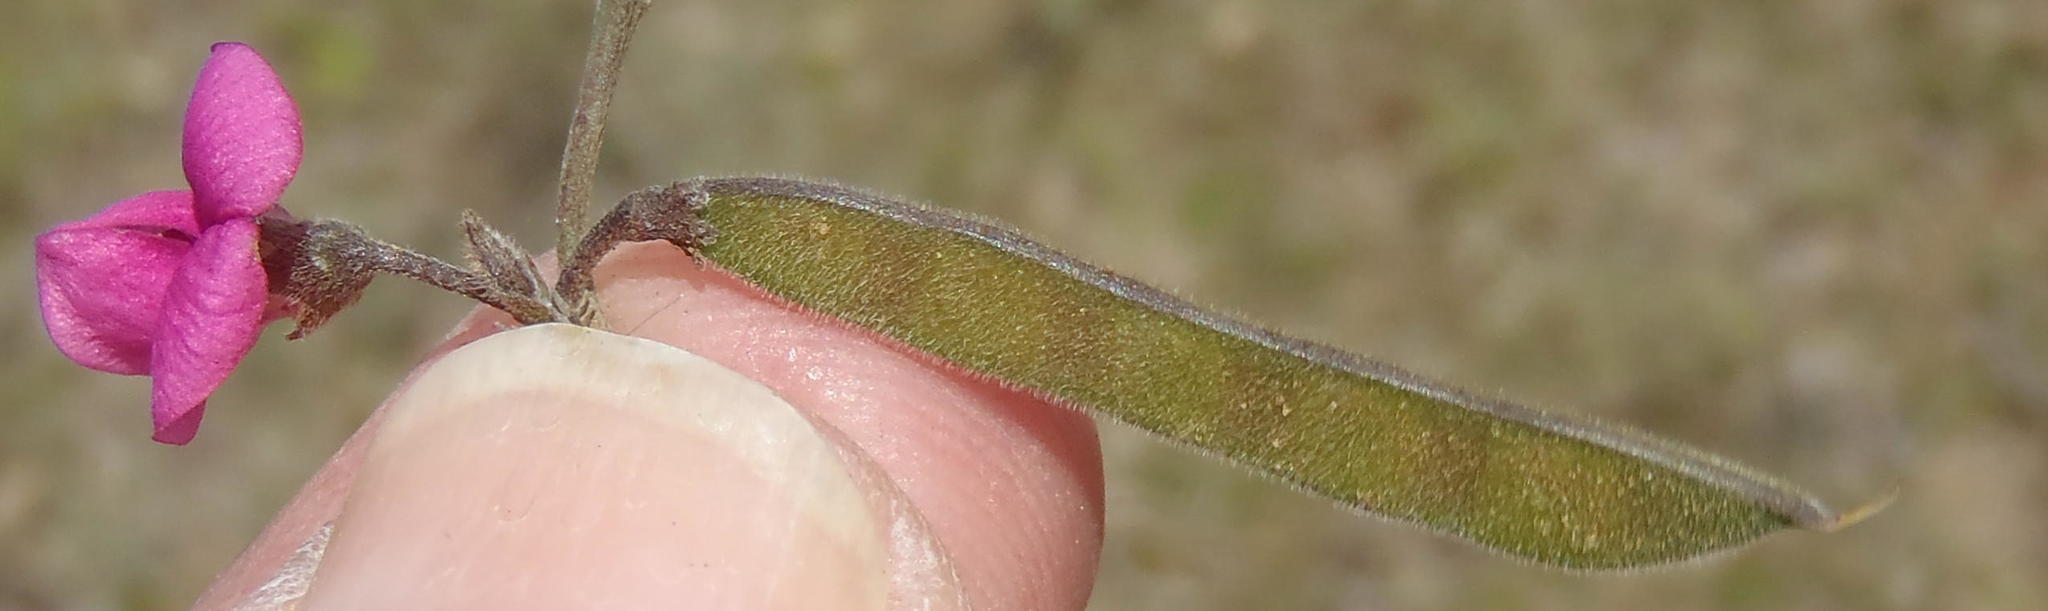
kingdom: Plantae
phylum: Tracheophyta
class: Magnoliopsida
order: Fabales
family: Fabaceae
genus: Tephrosia
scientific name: Tephrosia capensis
